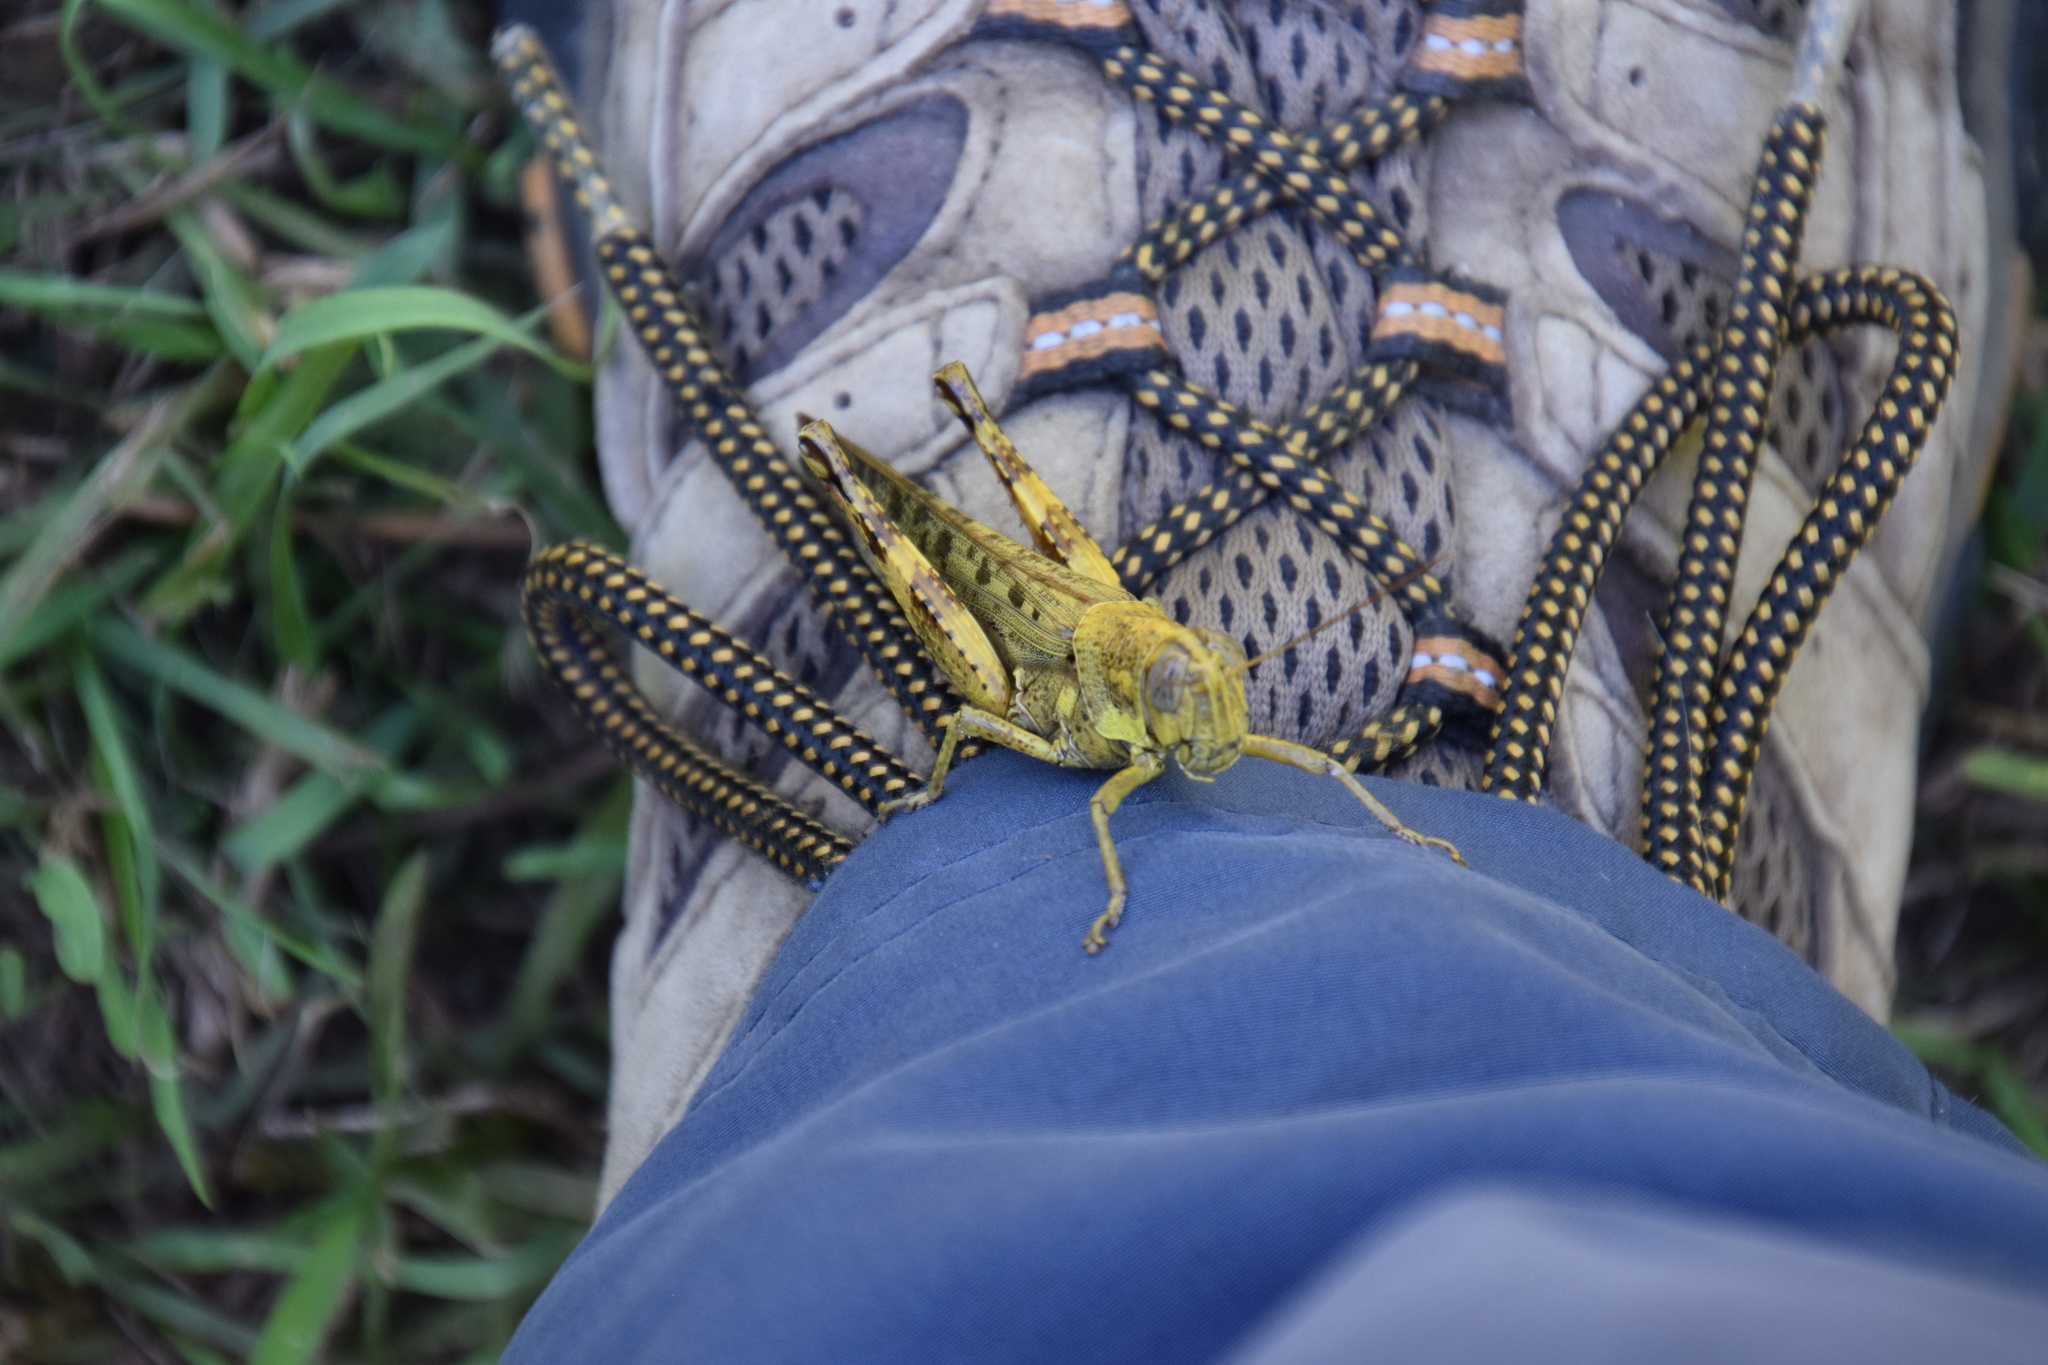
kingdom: Animalia
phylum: Arthropoda
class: Insecta
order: Orthoptera
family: Acrididae
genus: Valanga
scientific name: Valanga meleager
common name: Coastal valanga
